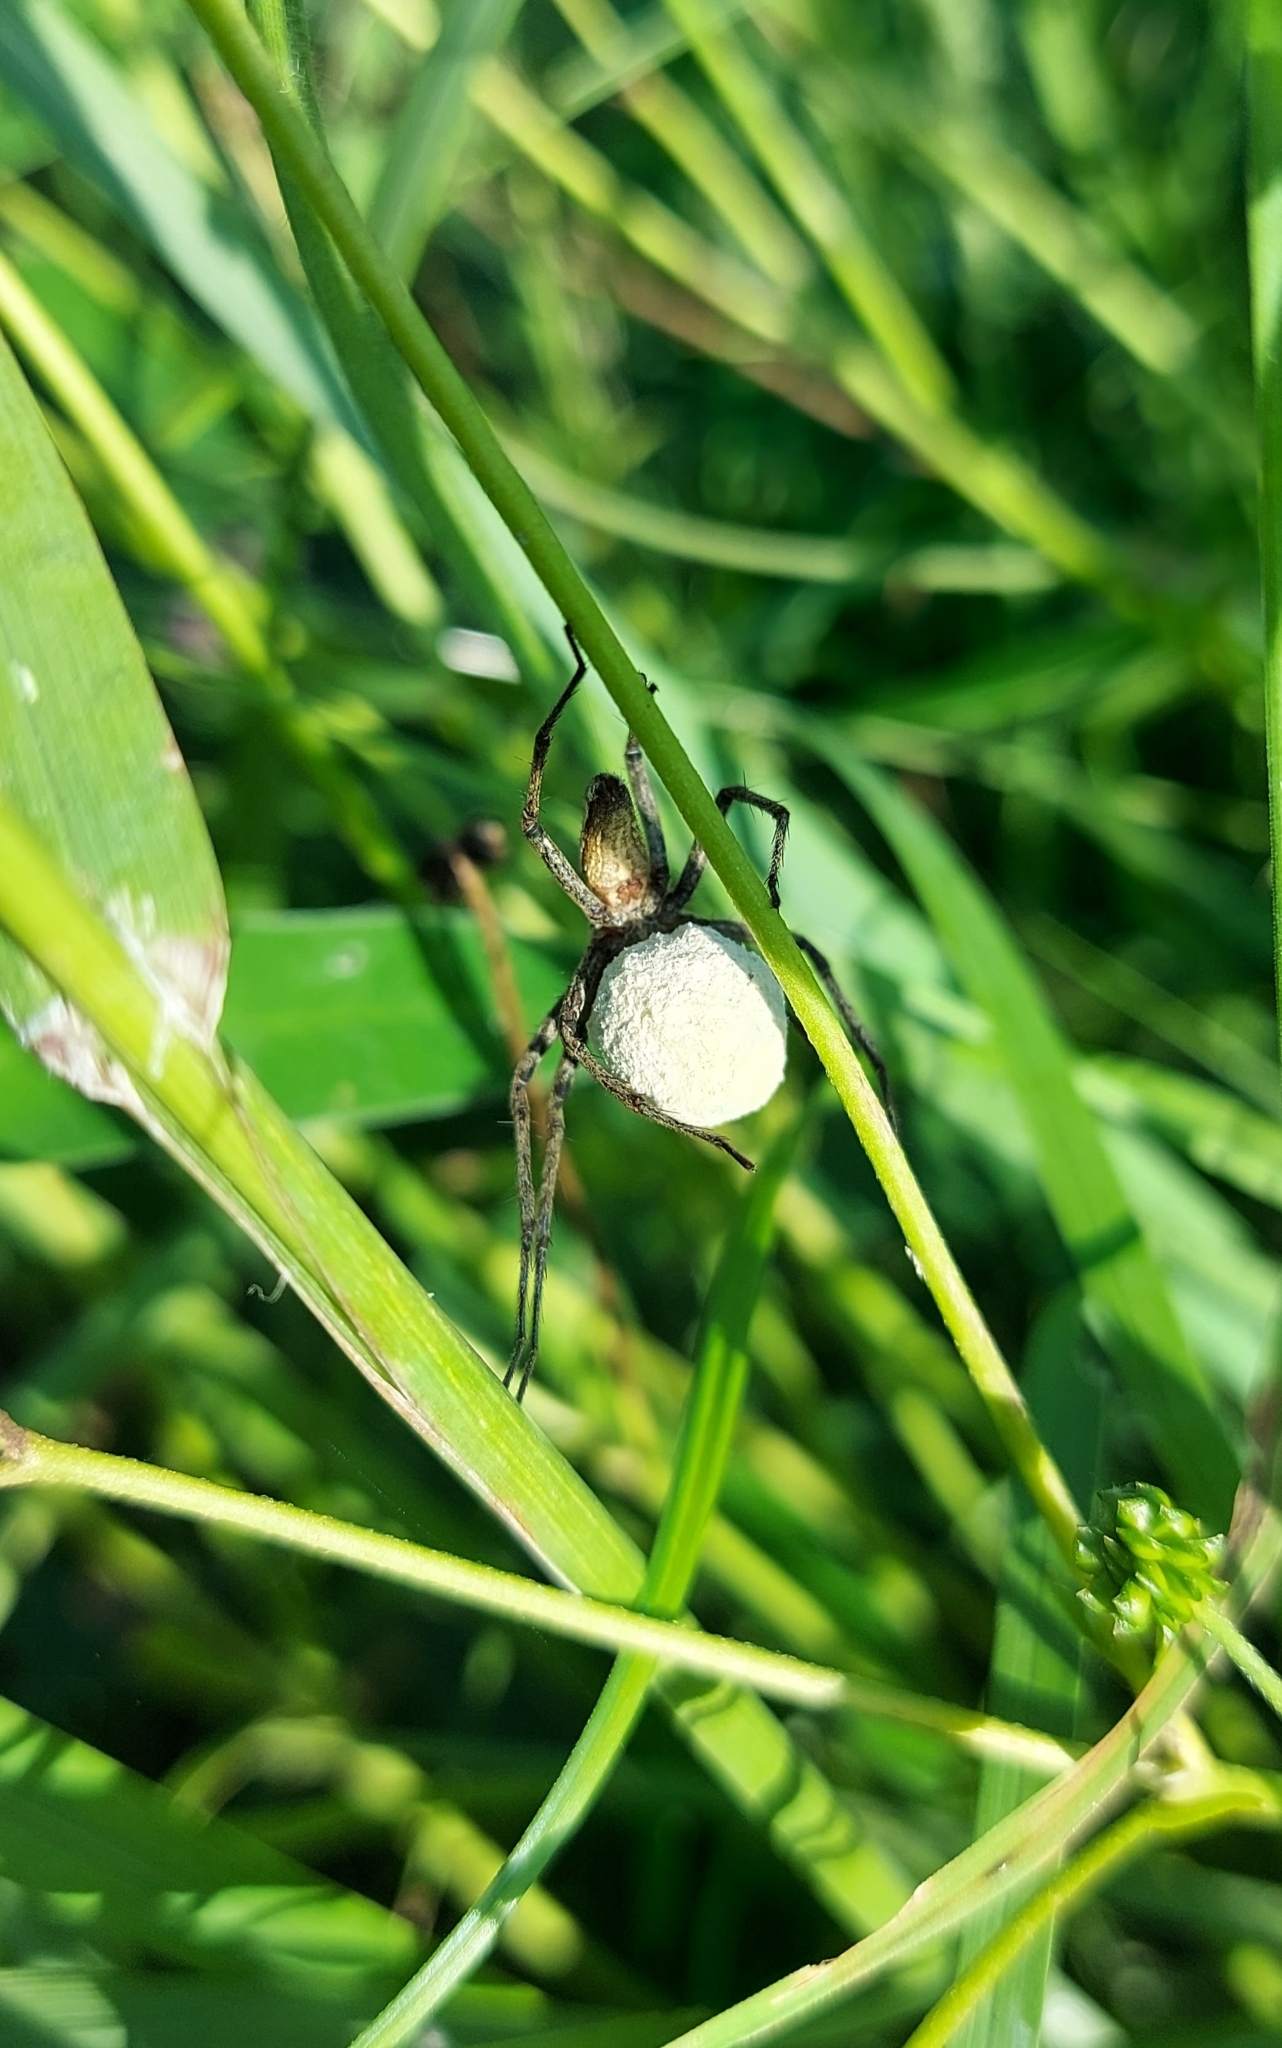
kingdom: Animalia
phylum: Arthropoda
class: Arachnida
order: Araneae
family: Pisauridae
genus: Pisaura
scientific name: Pisaura mirabilis
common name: Tent spider
